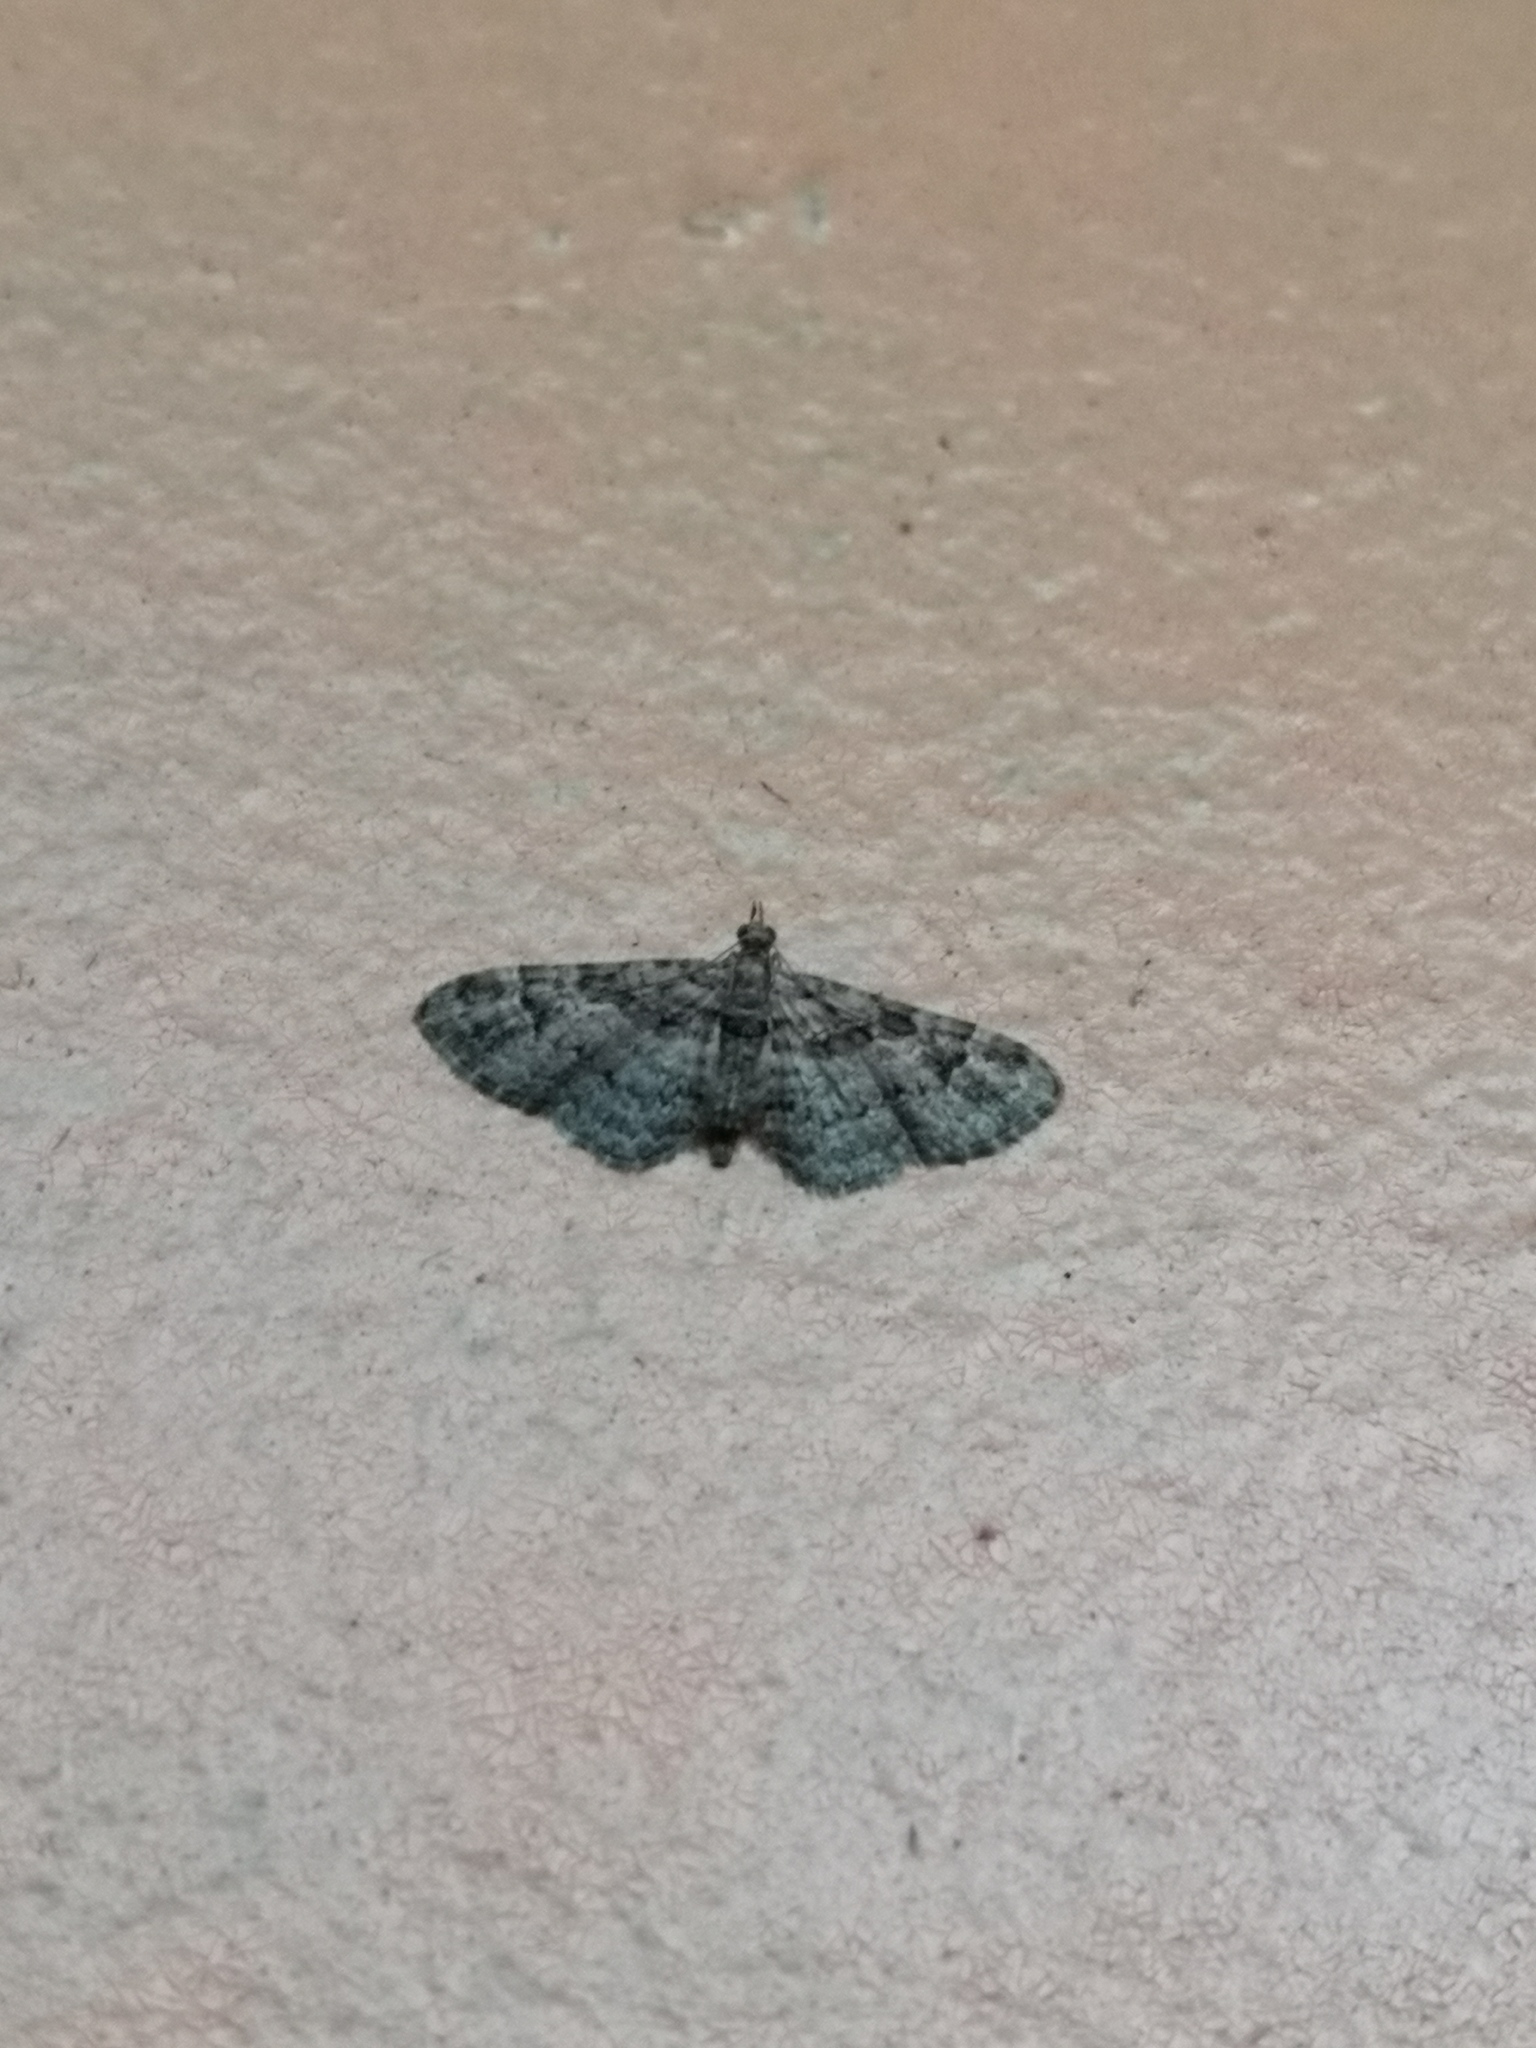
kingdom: Animalia
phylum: Arthropoda
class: Insecta
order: Lepidoptera
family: Geometridae
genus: Gymnoscelis
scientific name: Gymnoscelis rufifasciata
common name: Double-striped pug
